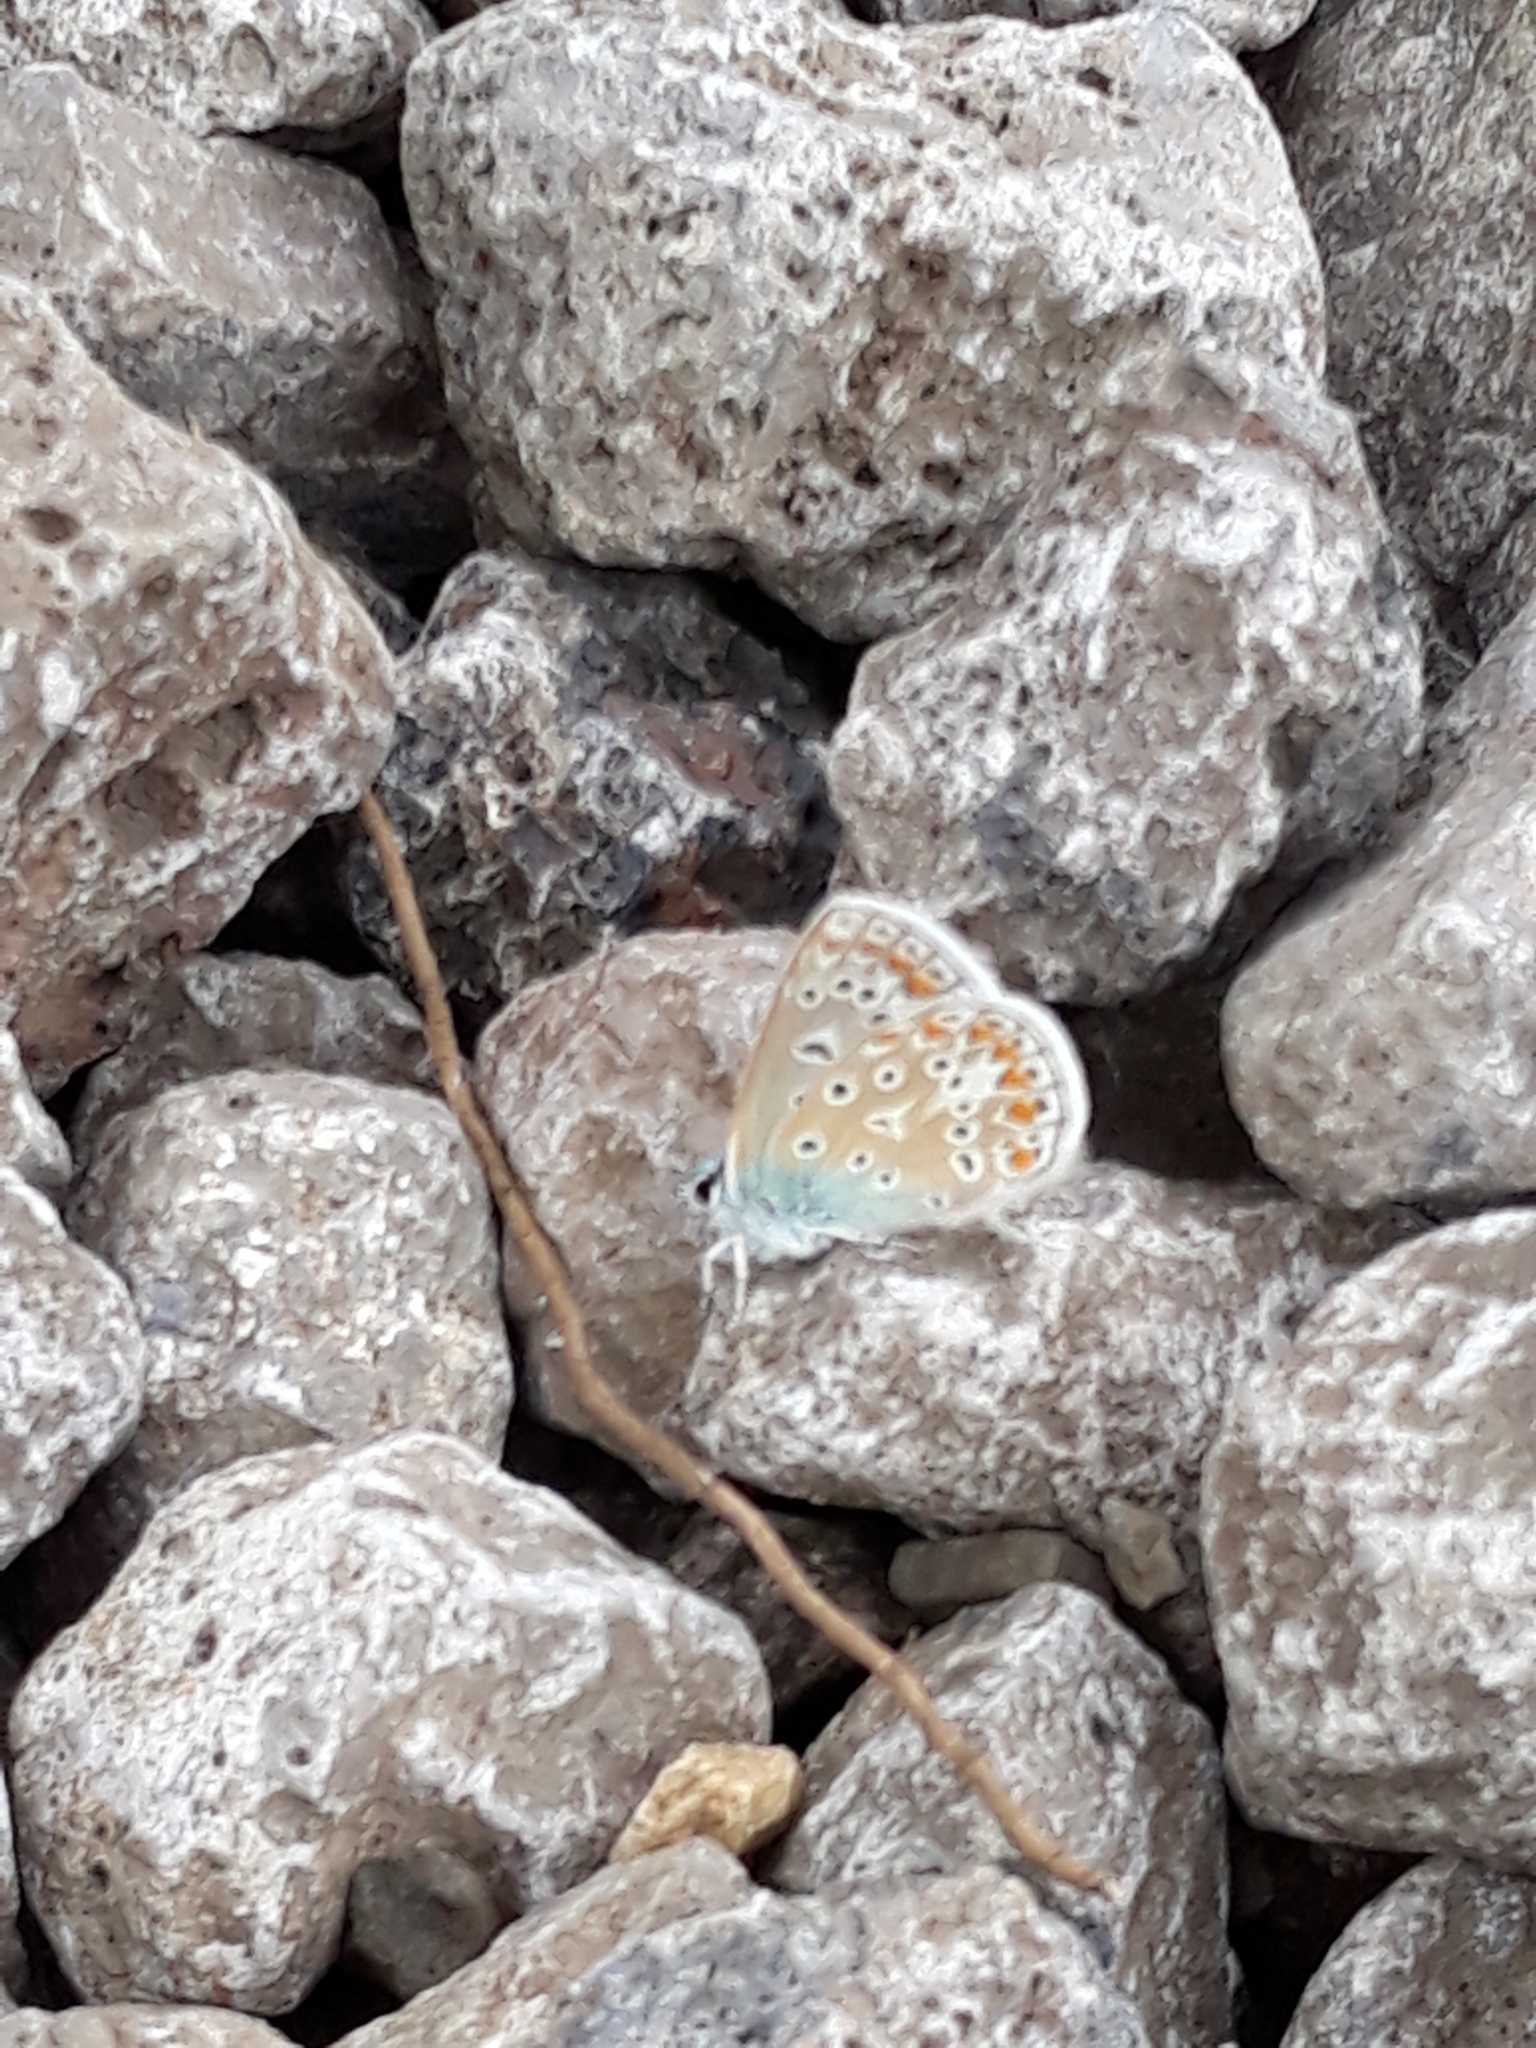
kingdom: Animalia
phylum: Arthropoda
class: Insecta
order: Lepidoptera
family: Lycaenidae
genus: Polyommatus
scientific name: Polyommatus icarus
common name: Common blue
